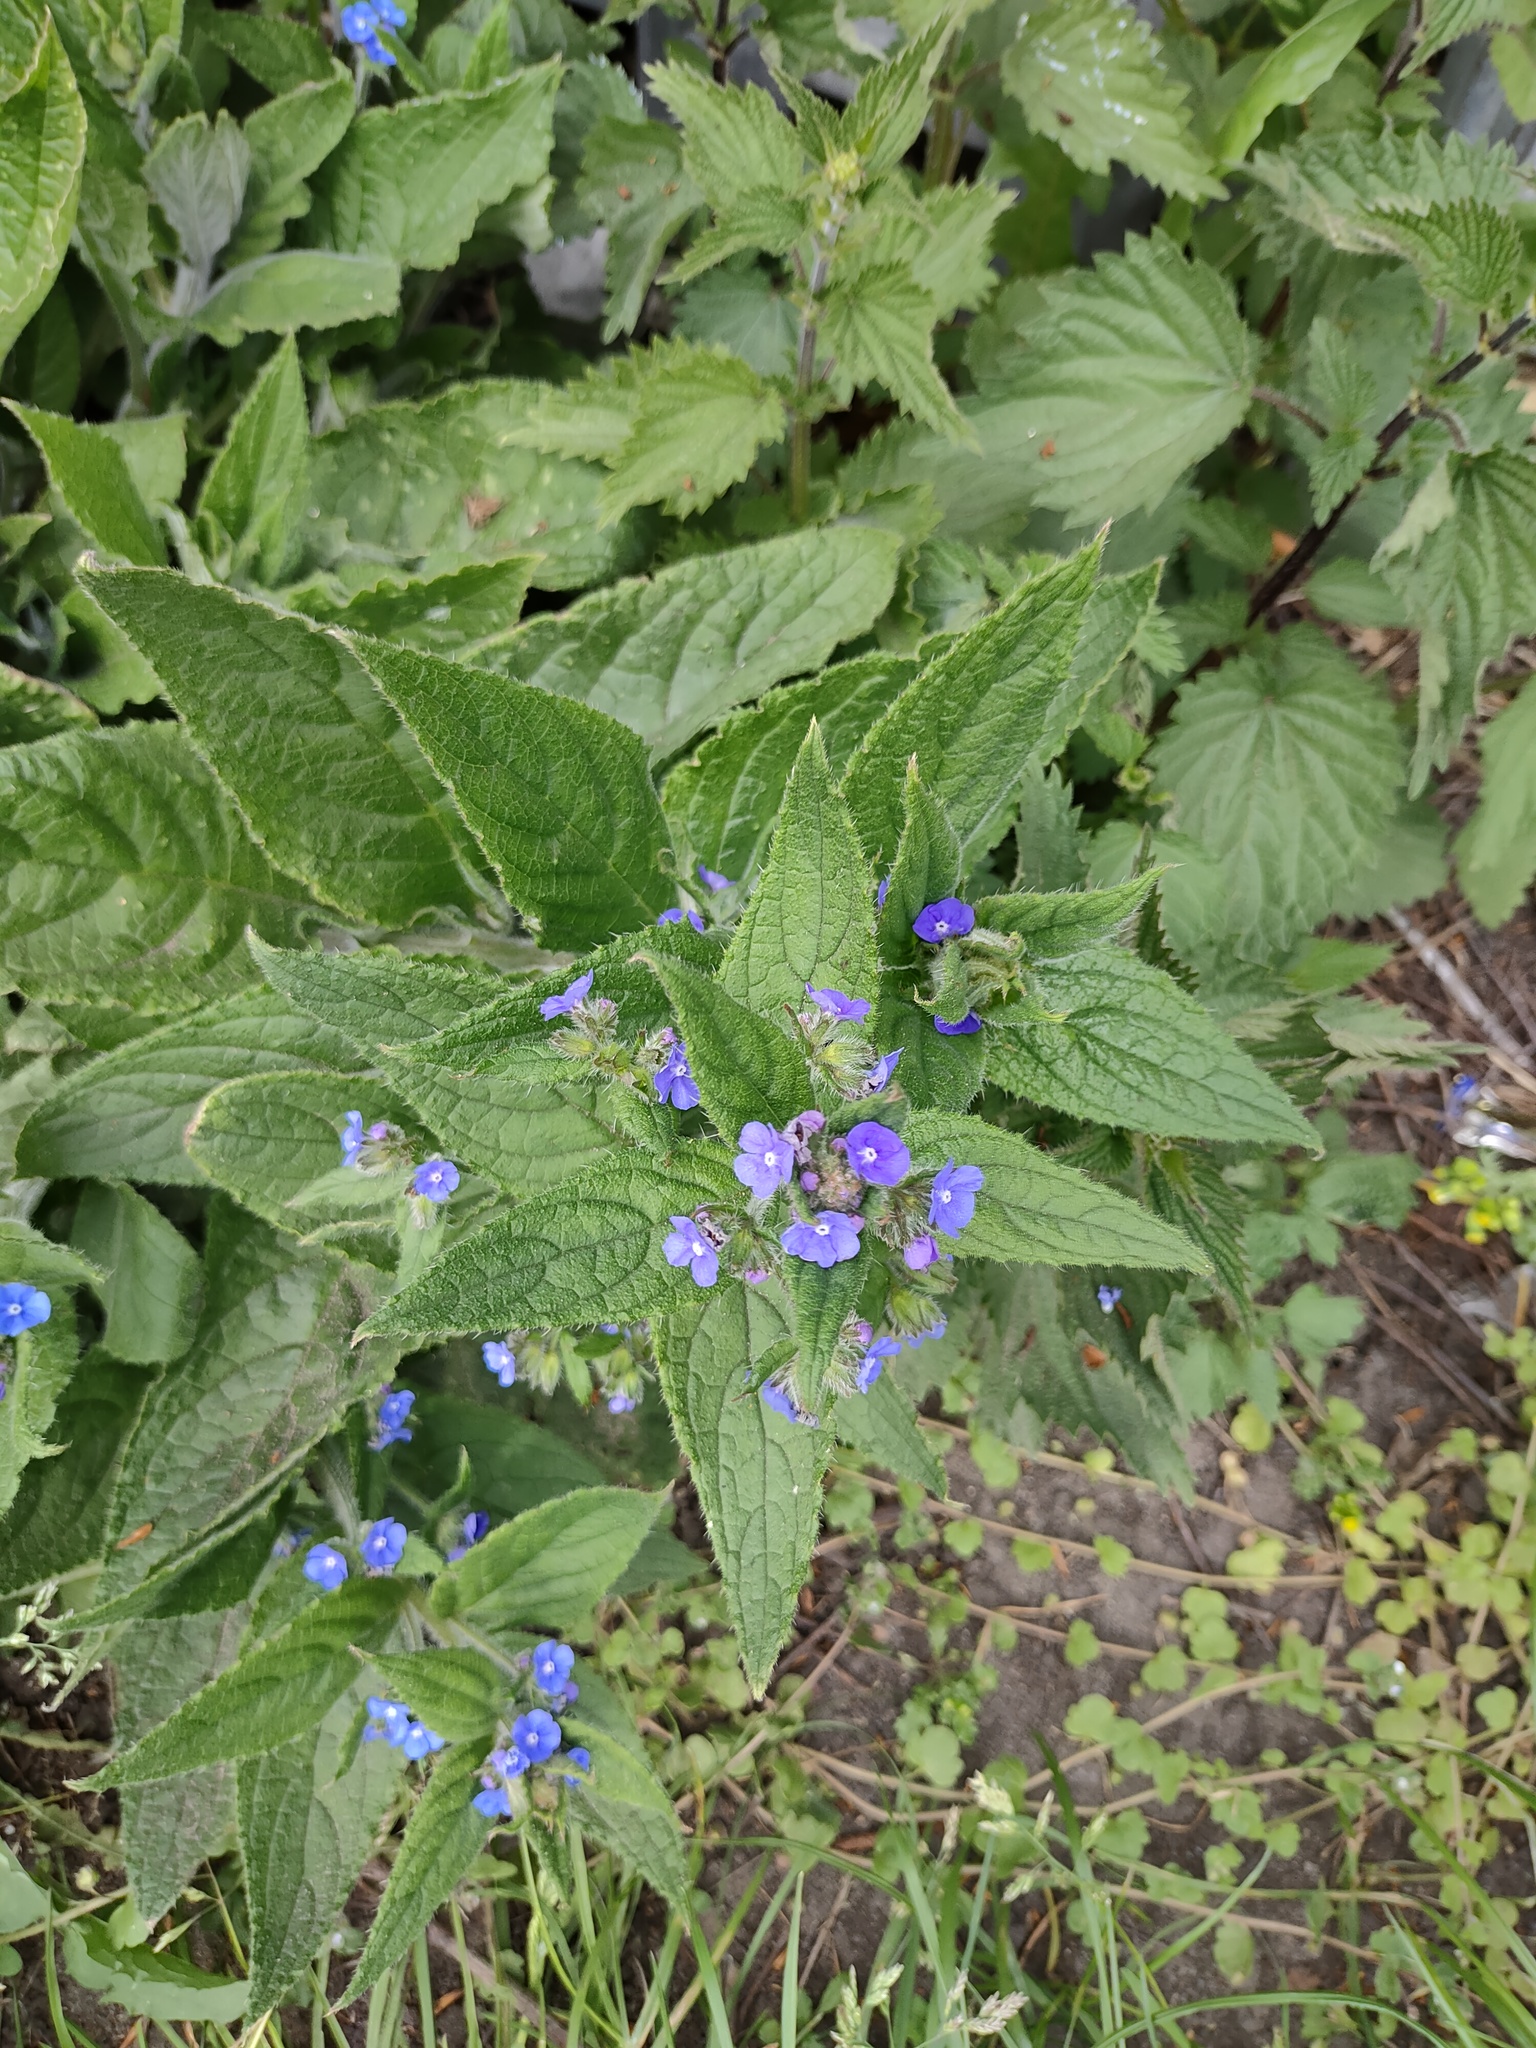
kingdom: Plantae
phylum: Tracheophyta
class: Magnoliopsida
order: Boraginales
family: Boraginaceae
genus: Pentaglottis
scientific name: Pentaglottis sempervirens
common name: Green alkanet
